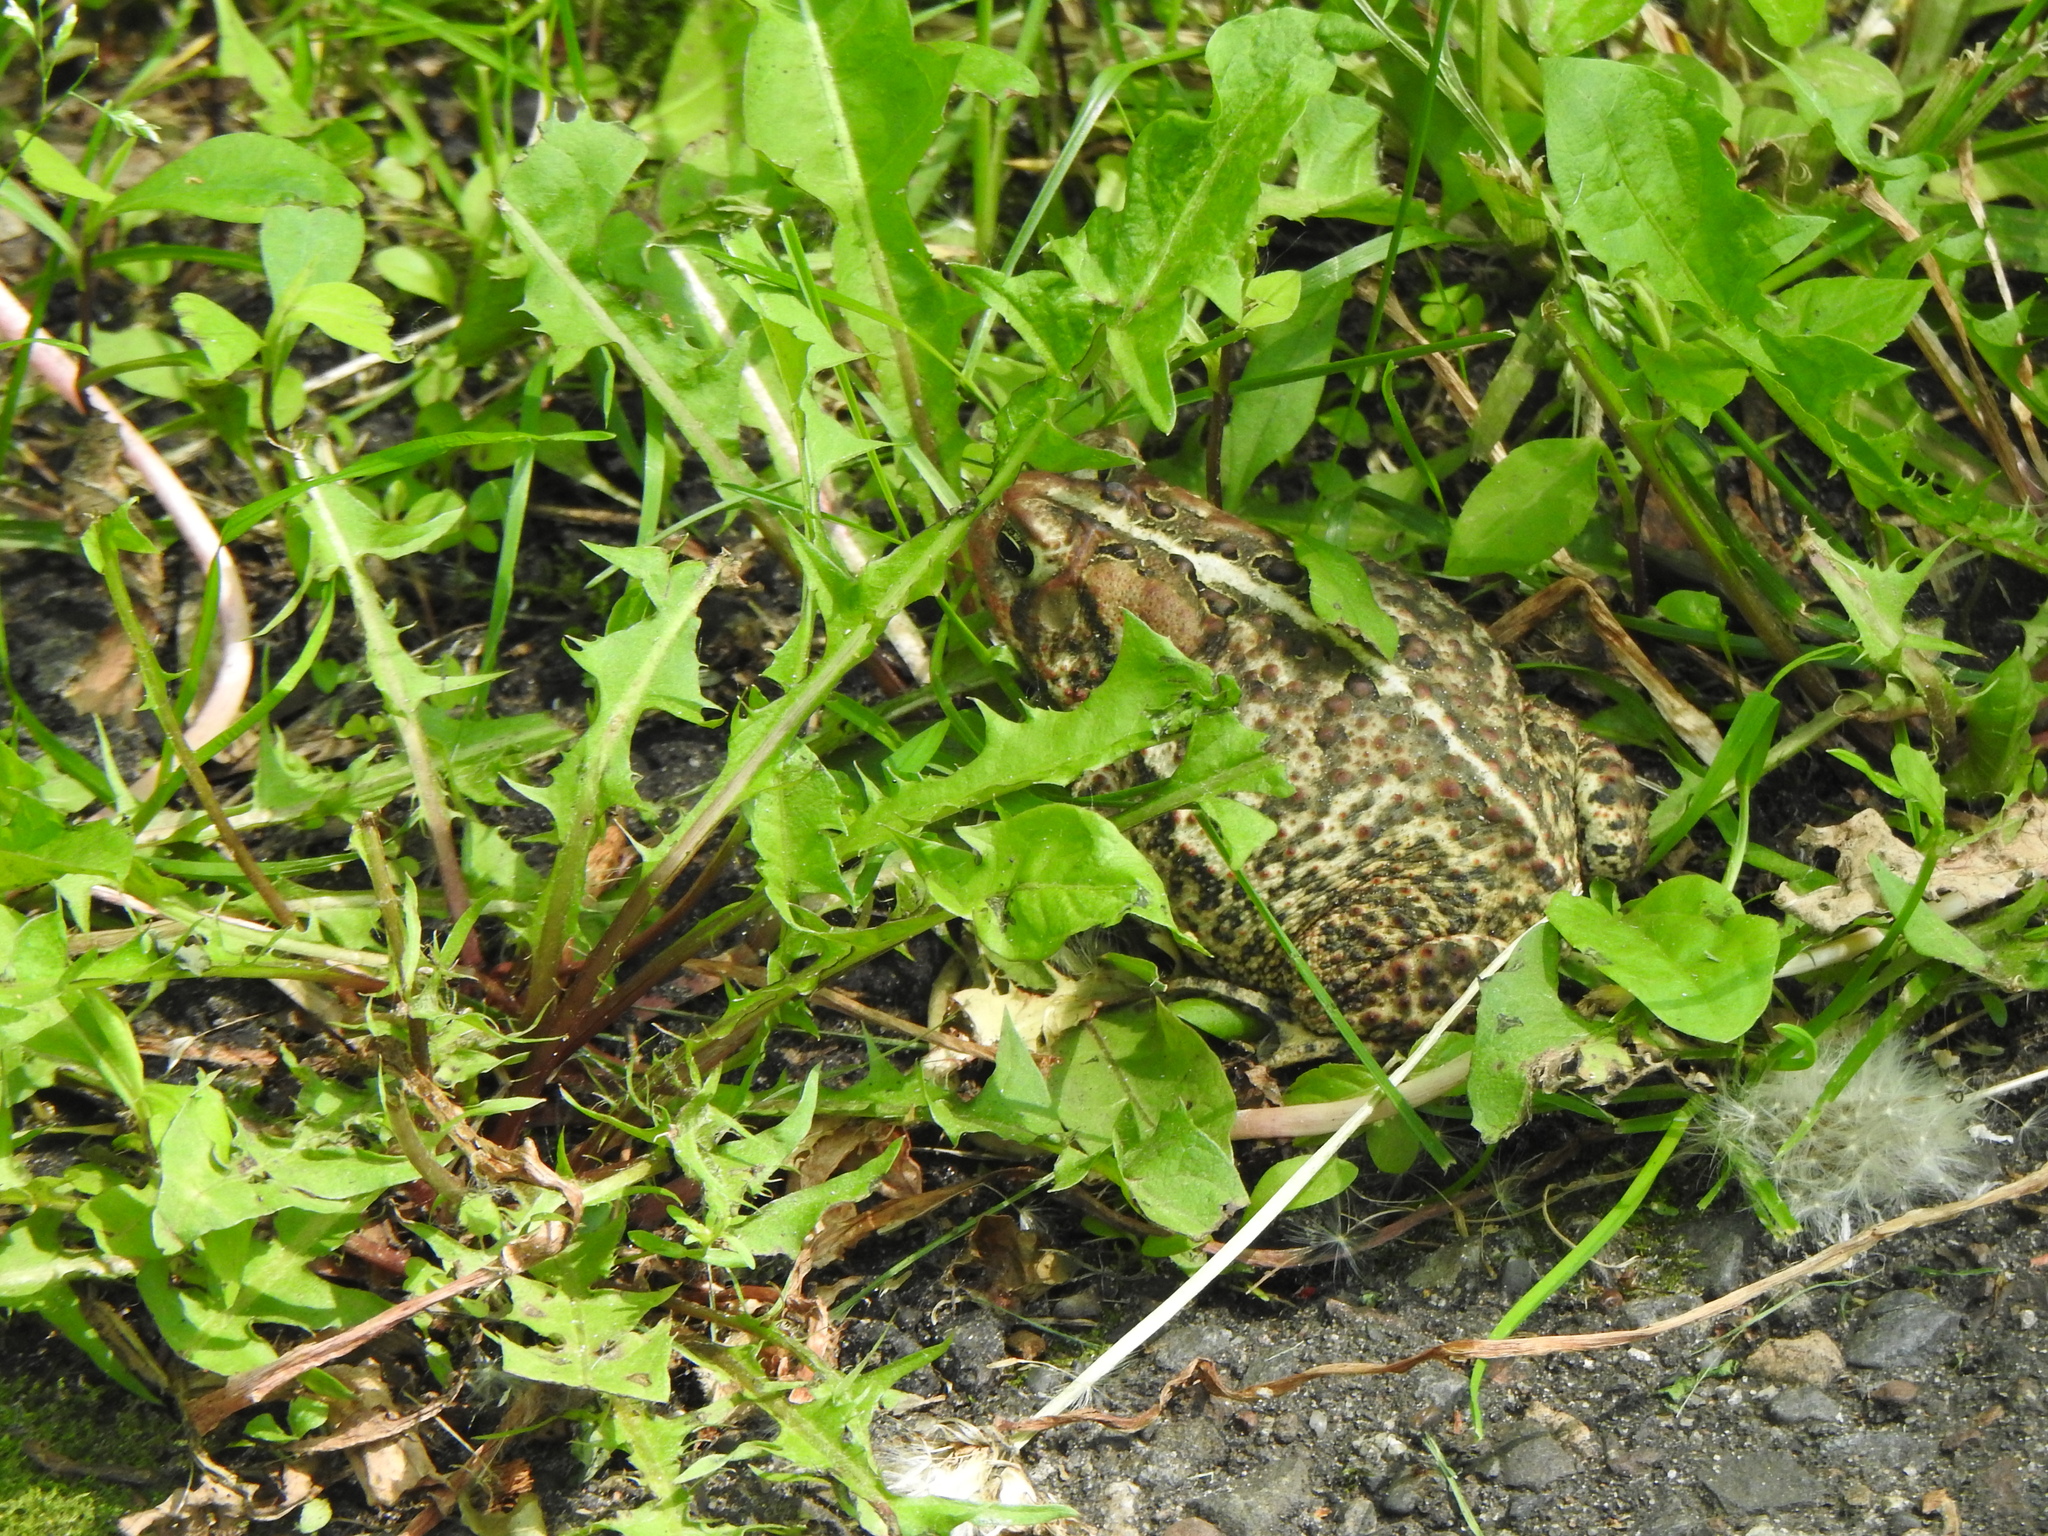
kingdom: Animalia
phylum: Chordata
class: Amphibia
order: Anura
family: Bufonidae
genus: Anaxyrus
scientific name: Anaxyrus americanus
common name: American toad
